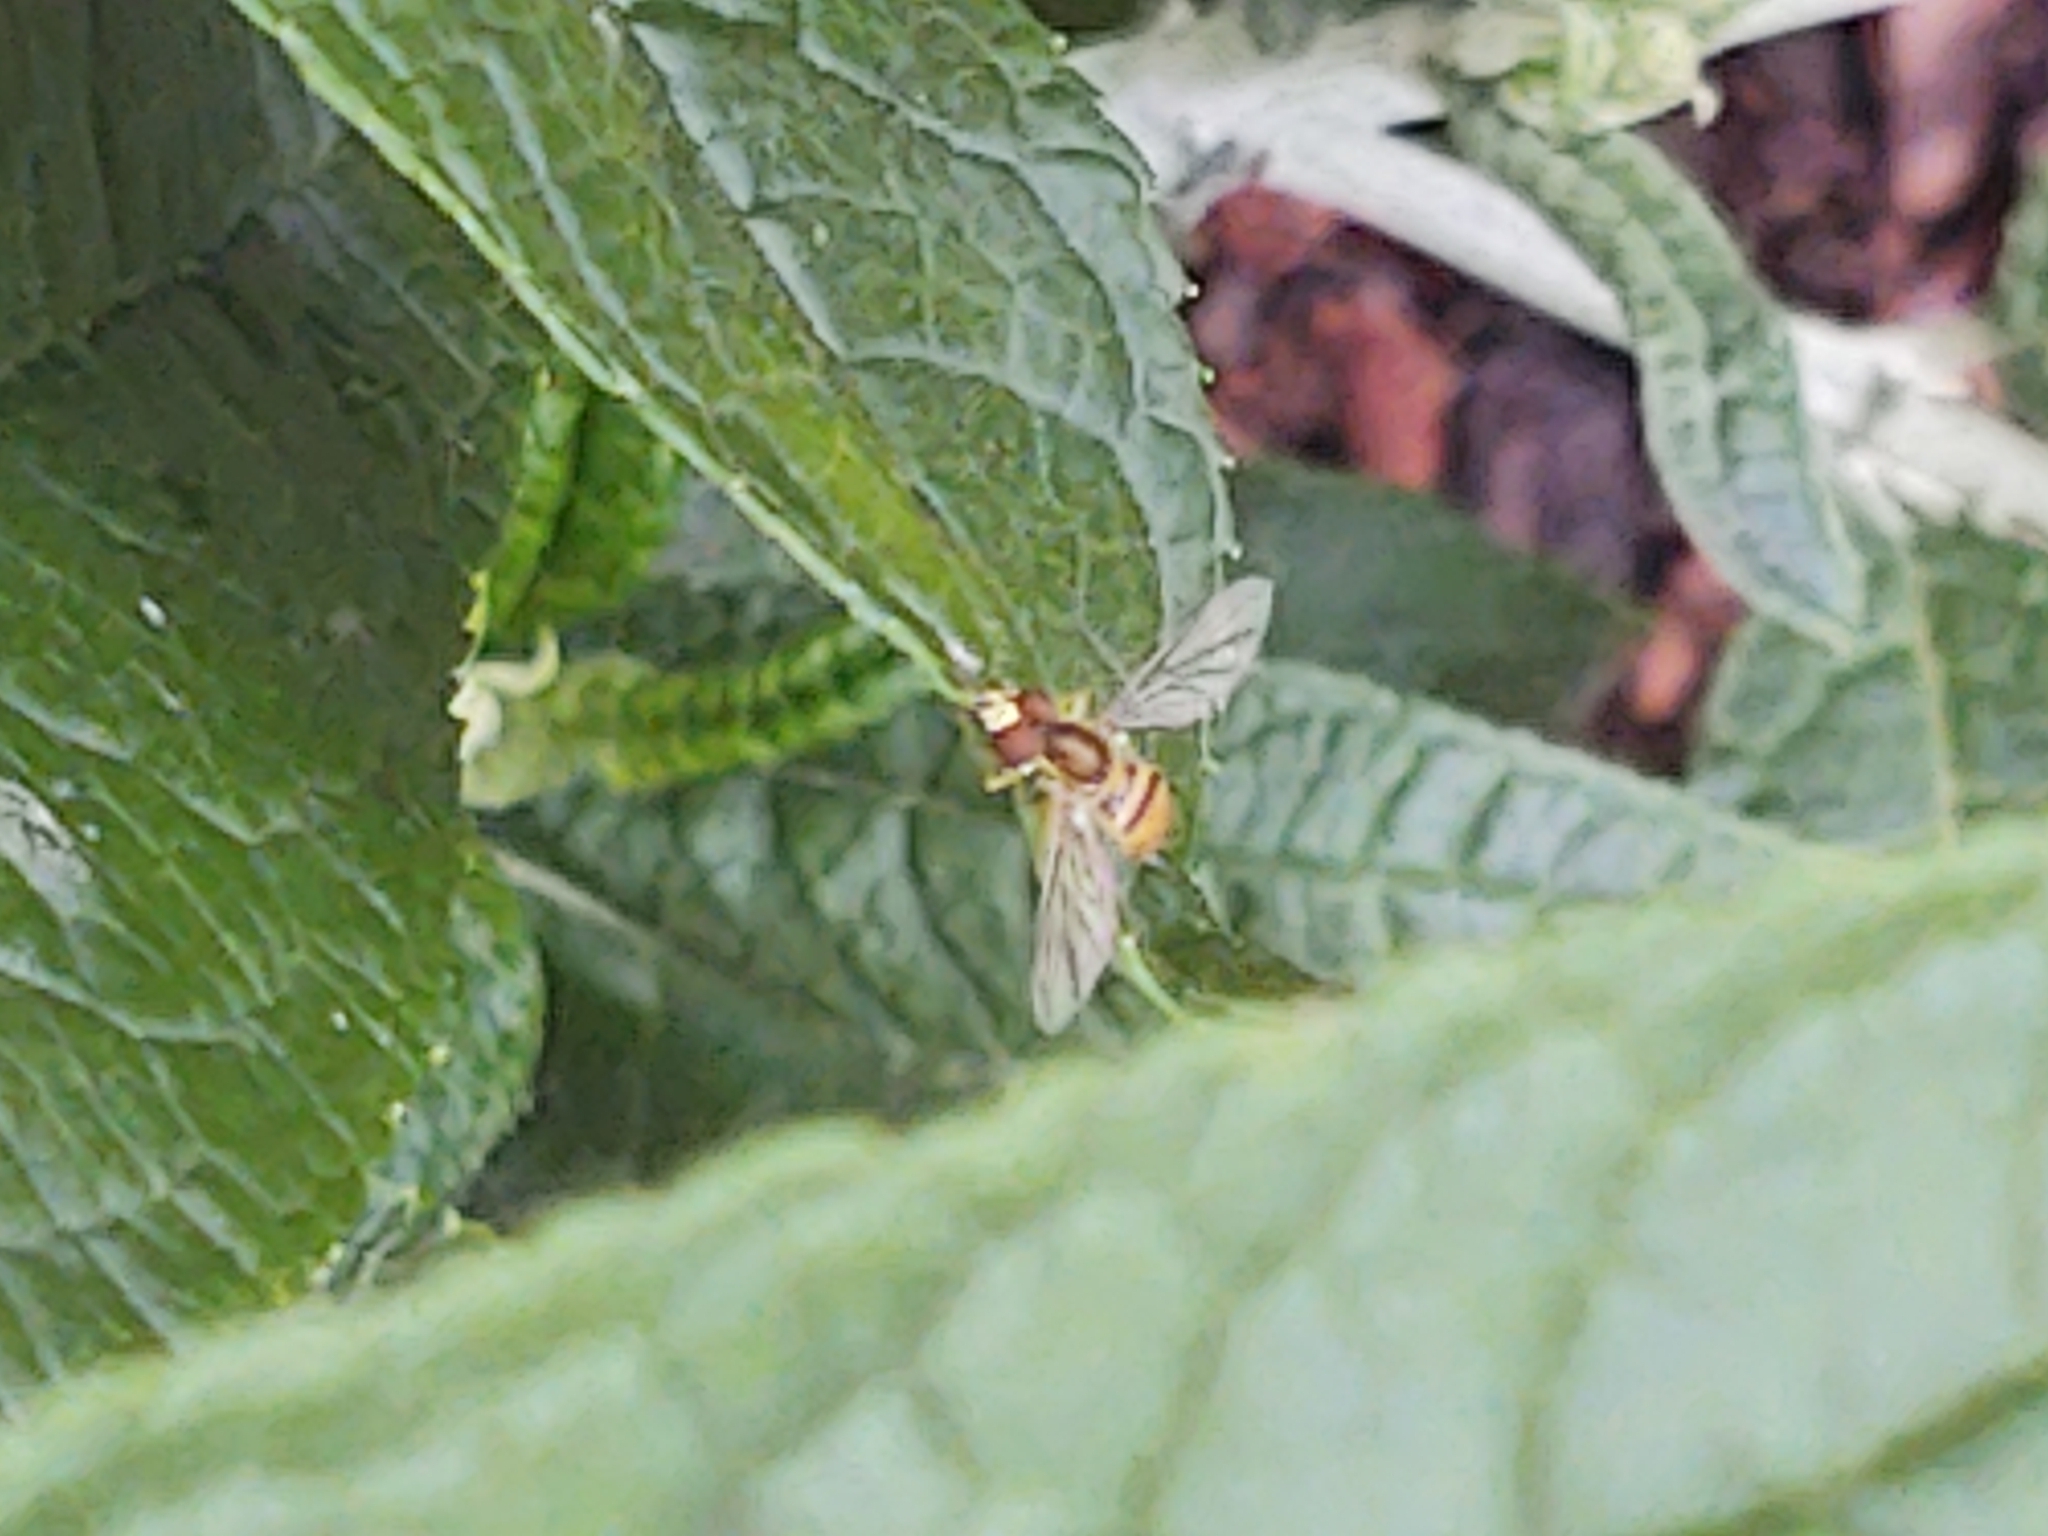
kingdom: Animalia
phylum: Arthropoda
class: Insecta
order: Diptera
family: Syrphidae
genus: Toxomerus
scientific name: Toxomerus
